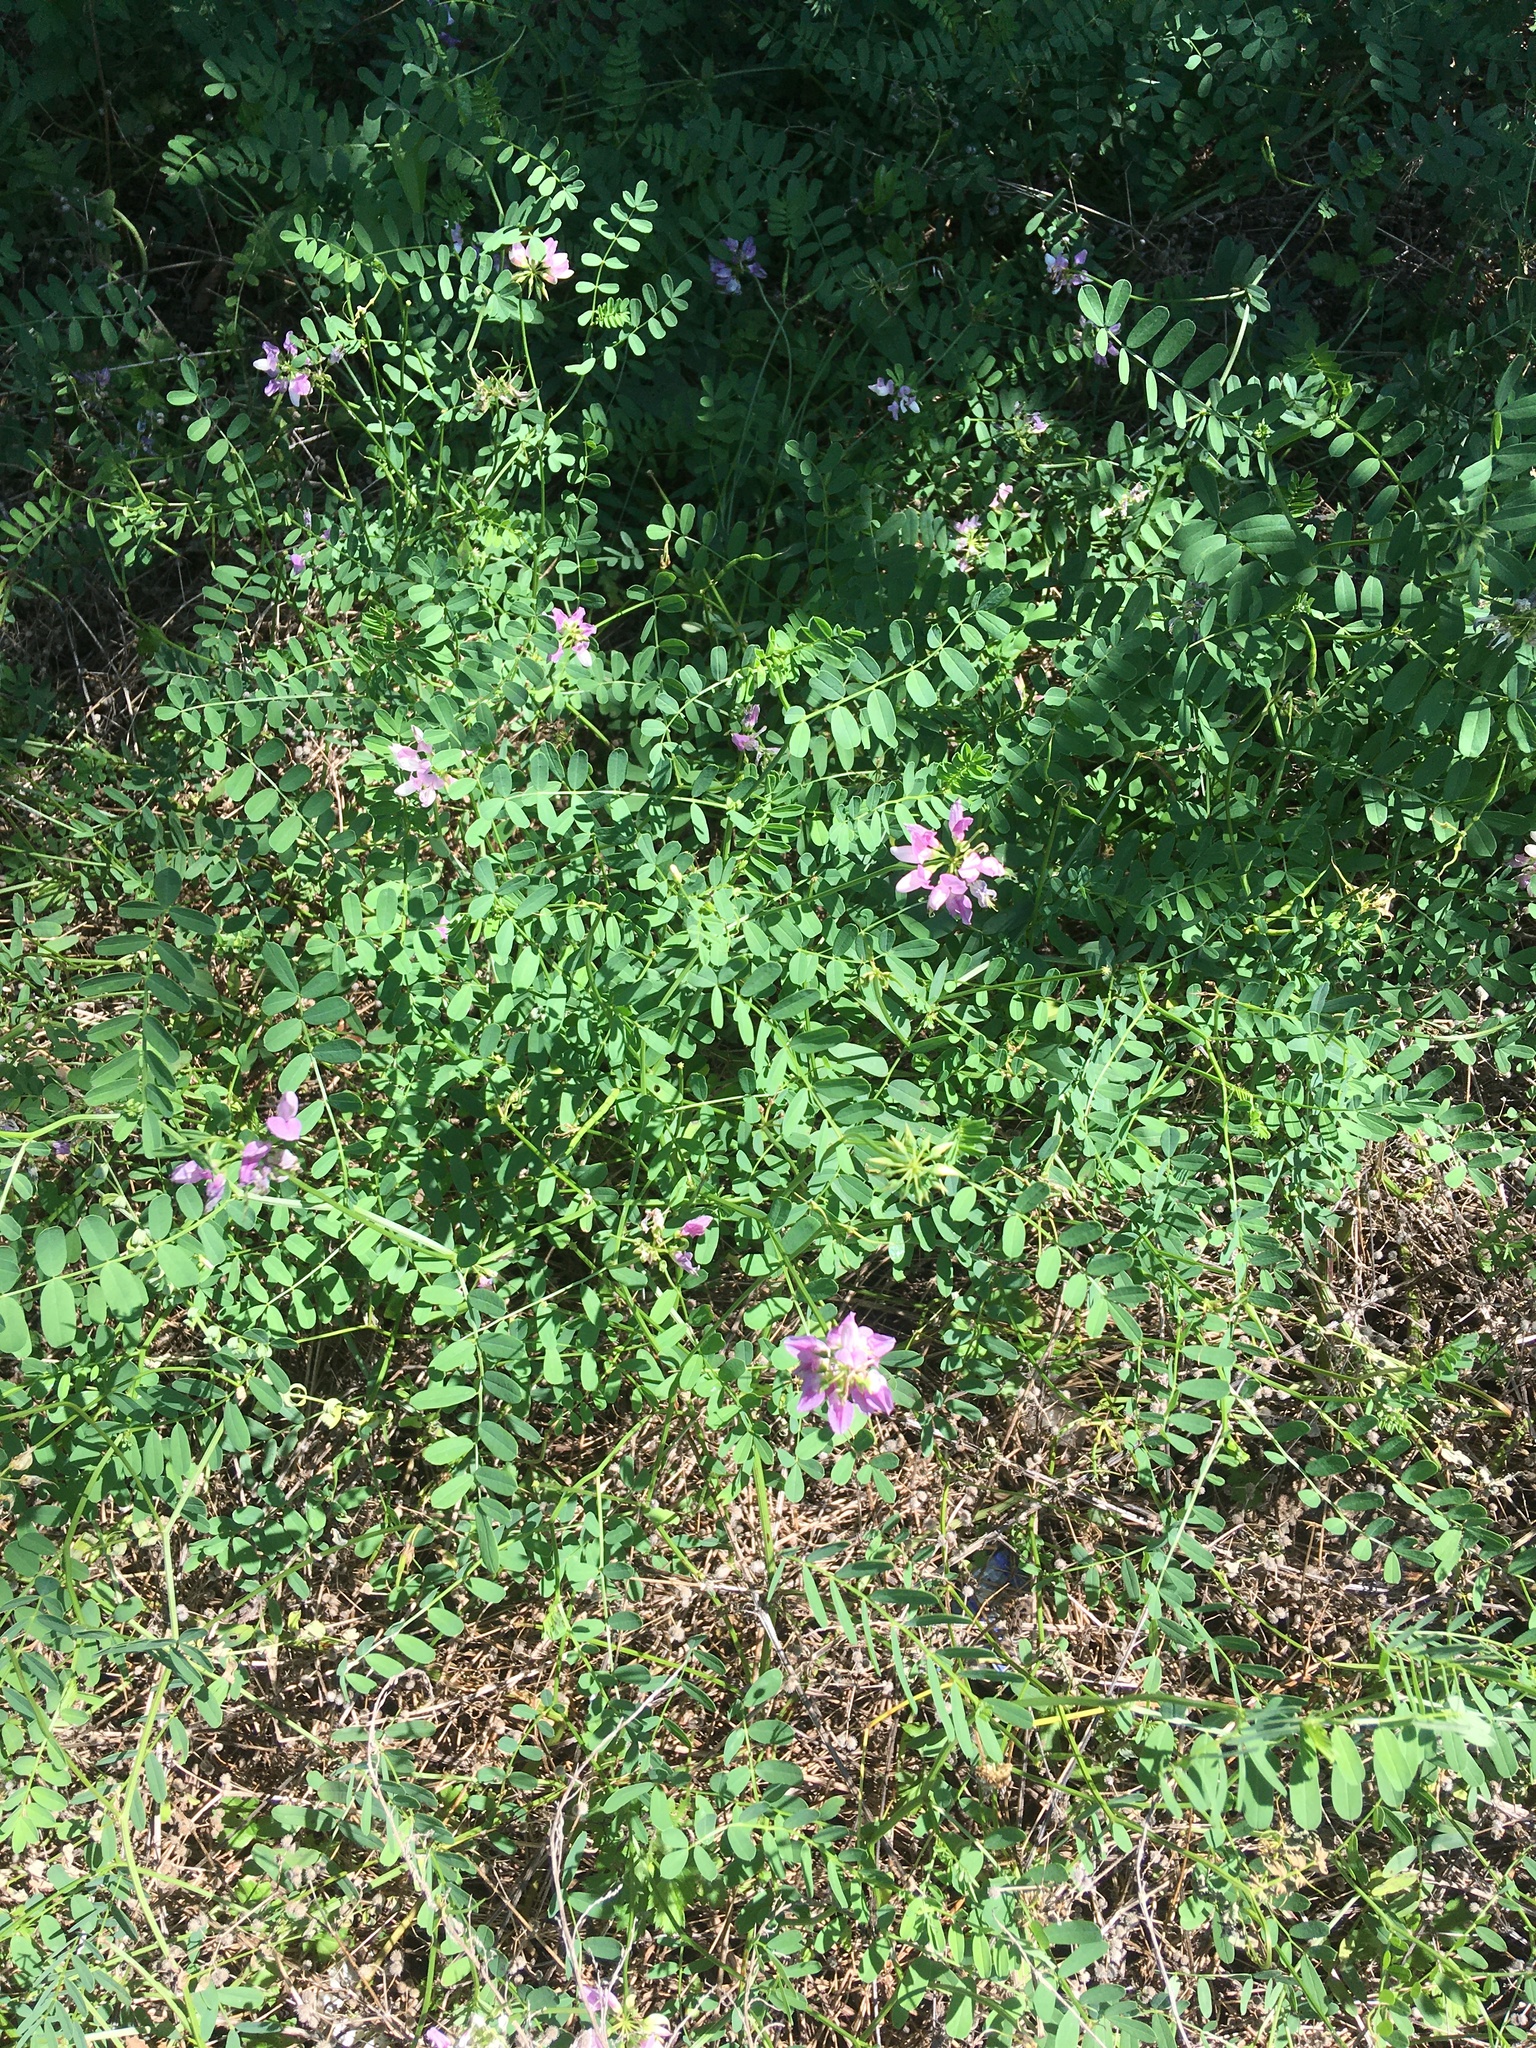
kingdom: Plantae
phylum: Tracheophyta
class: Magnoliopsida
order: Fabales
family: Fabaceae
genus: Coronilla
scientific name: Coronilla varia
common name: Crownvetch
